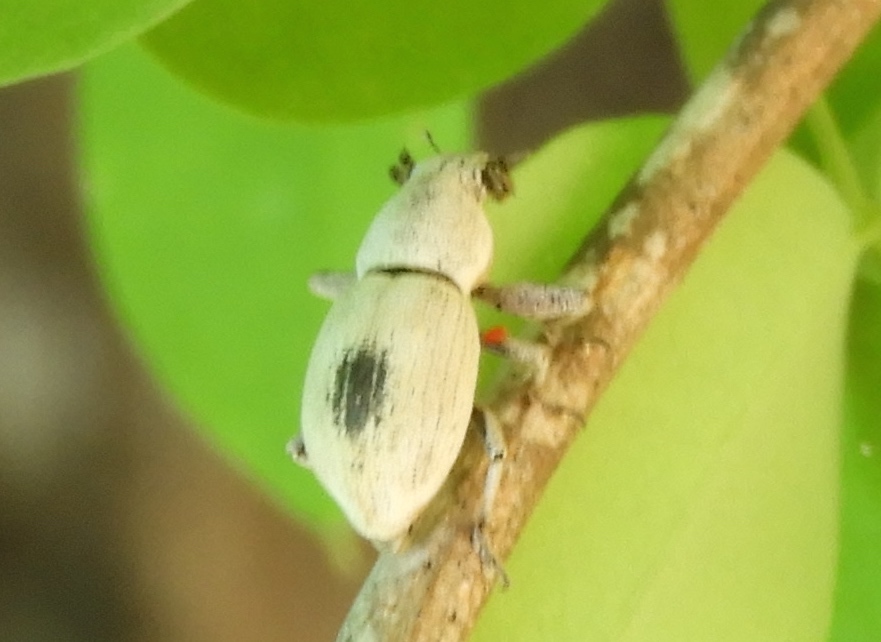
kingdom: Animalia
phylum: Arthropoda
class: Insecta
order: Coleoptera
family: Curculionidae
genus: Pantomorus
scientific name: Pantomorus
